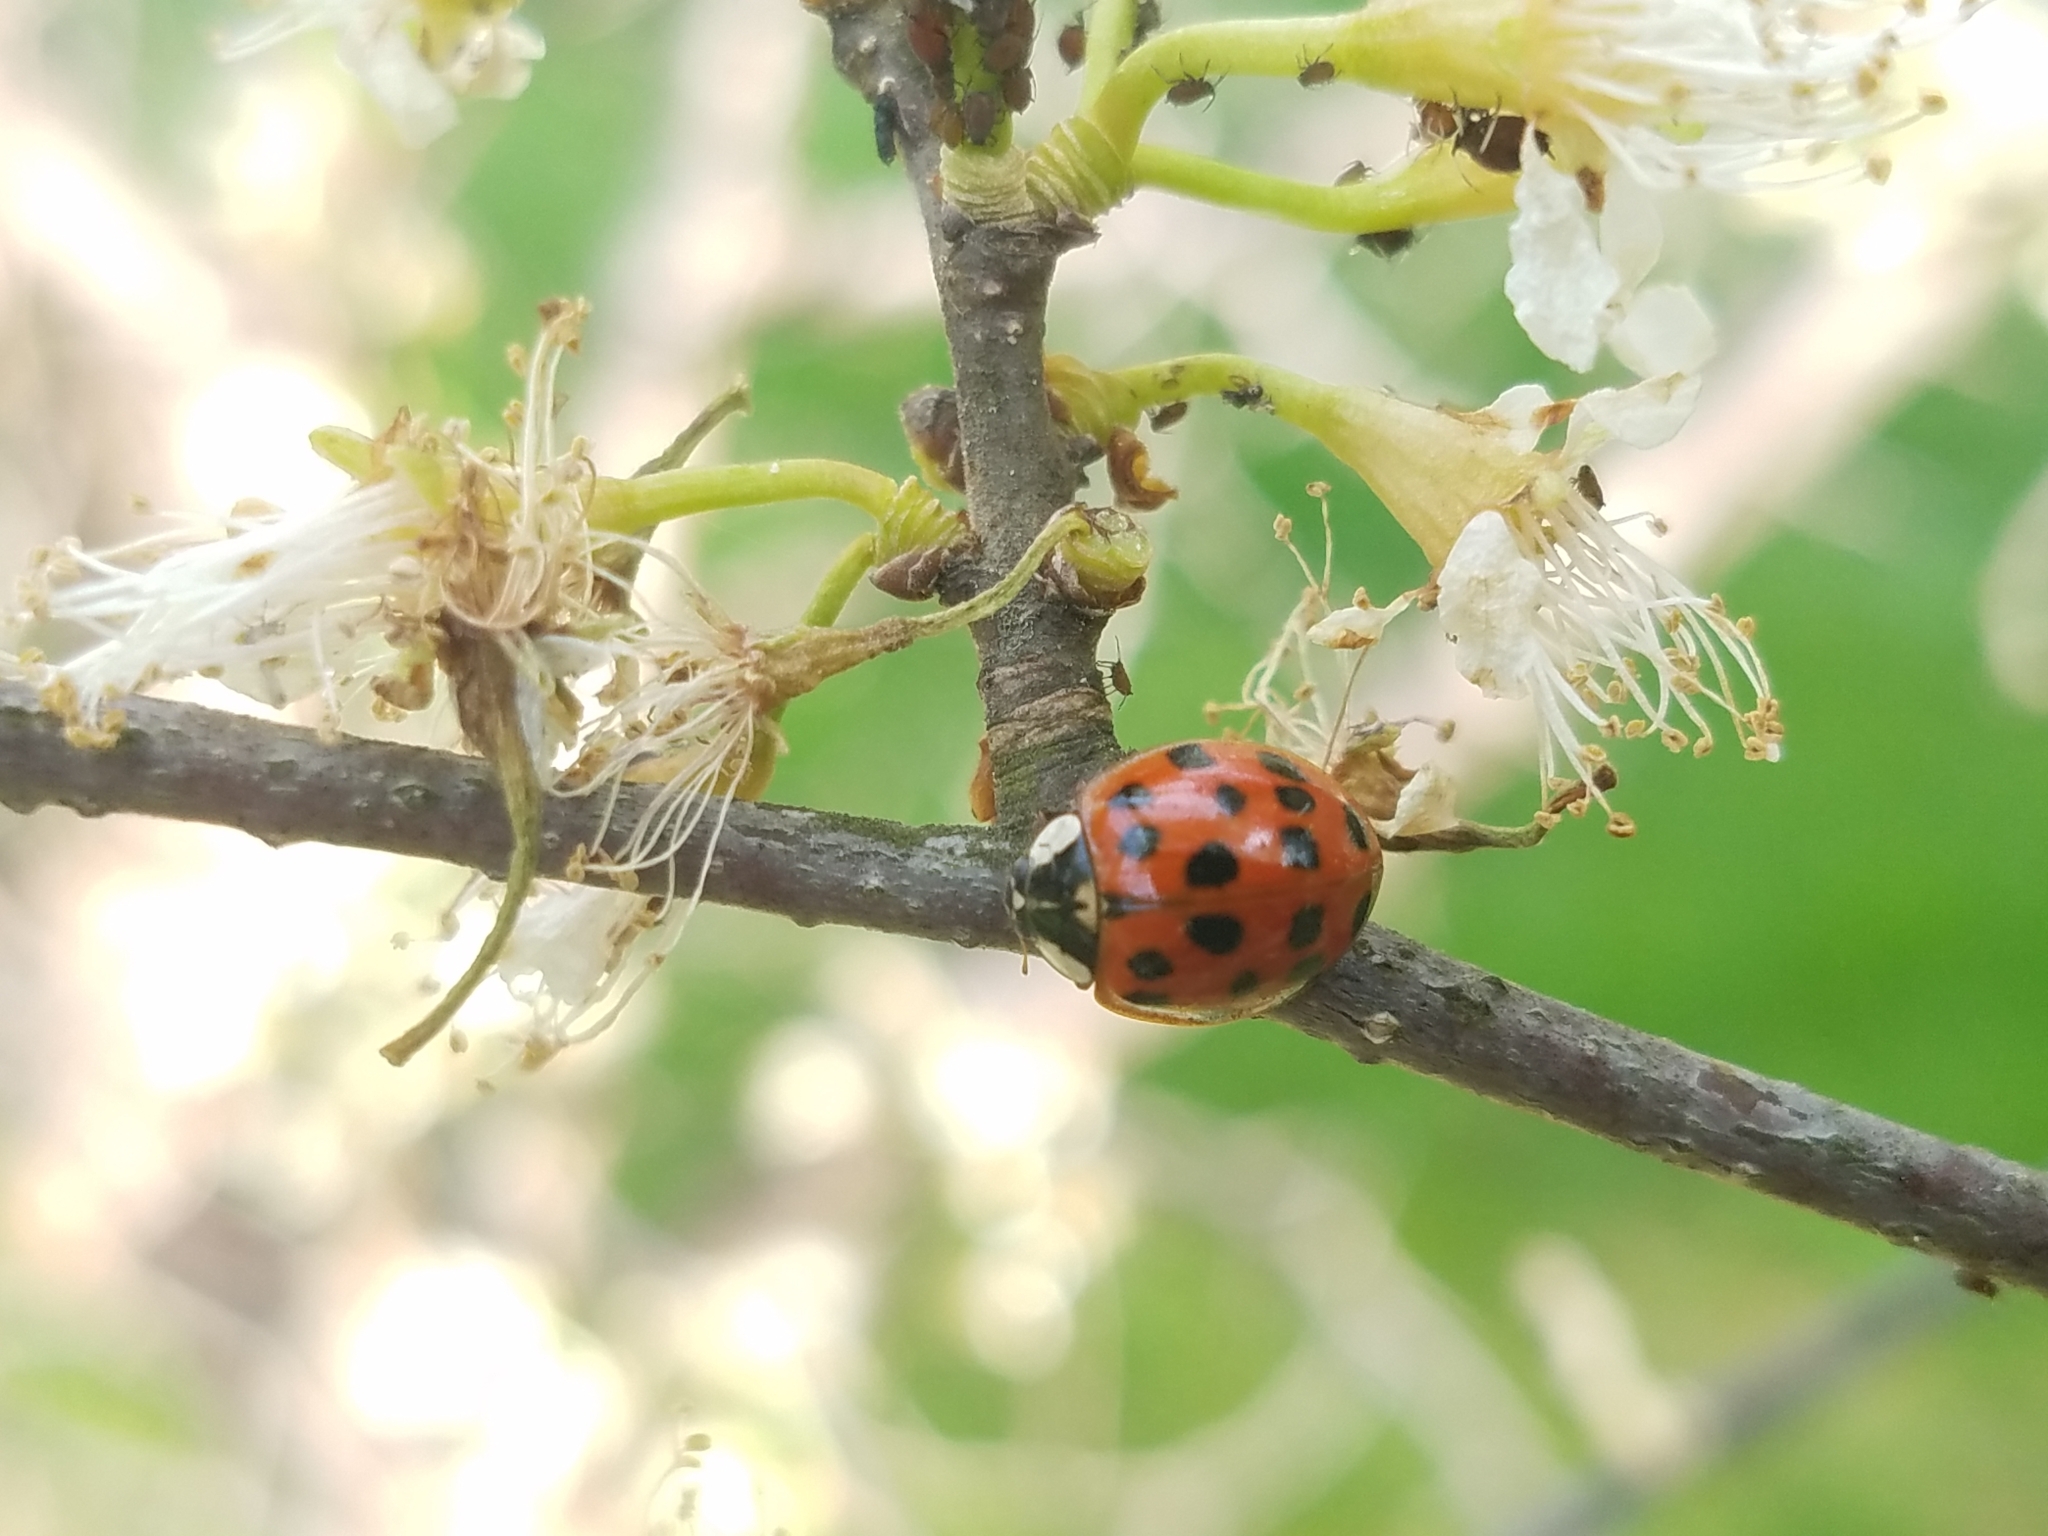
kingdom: Animalia
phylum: Arthropoda
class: Insecta
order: Coleoptera
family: Coccinellidae
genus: Harmonia
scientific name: Harmonia axyridis
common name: Harlequin ladybird
